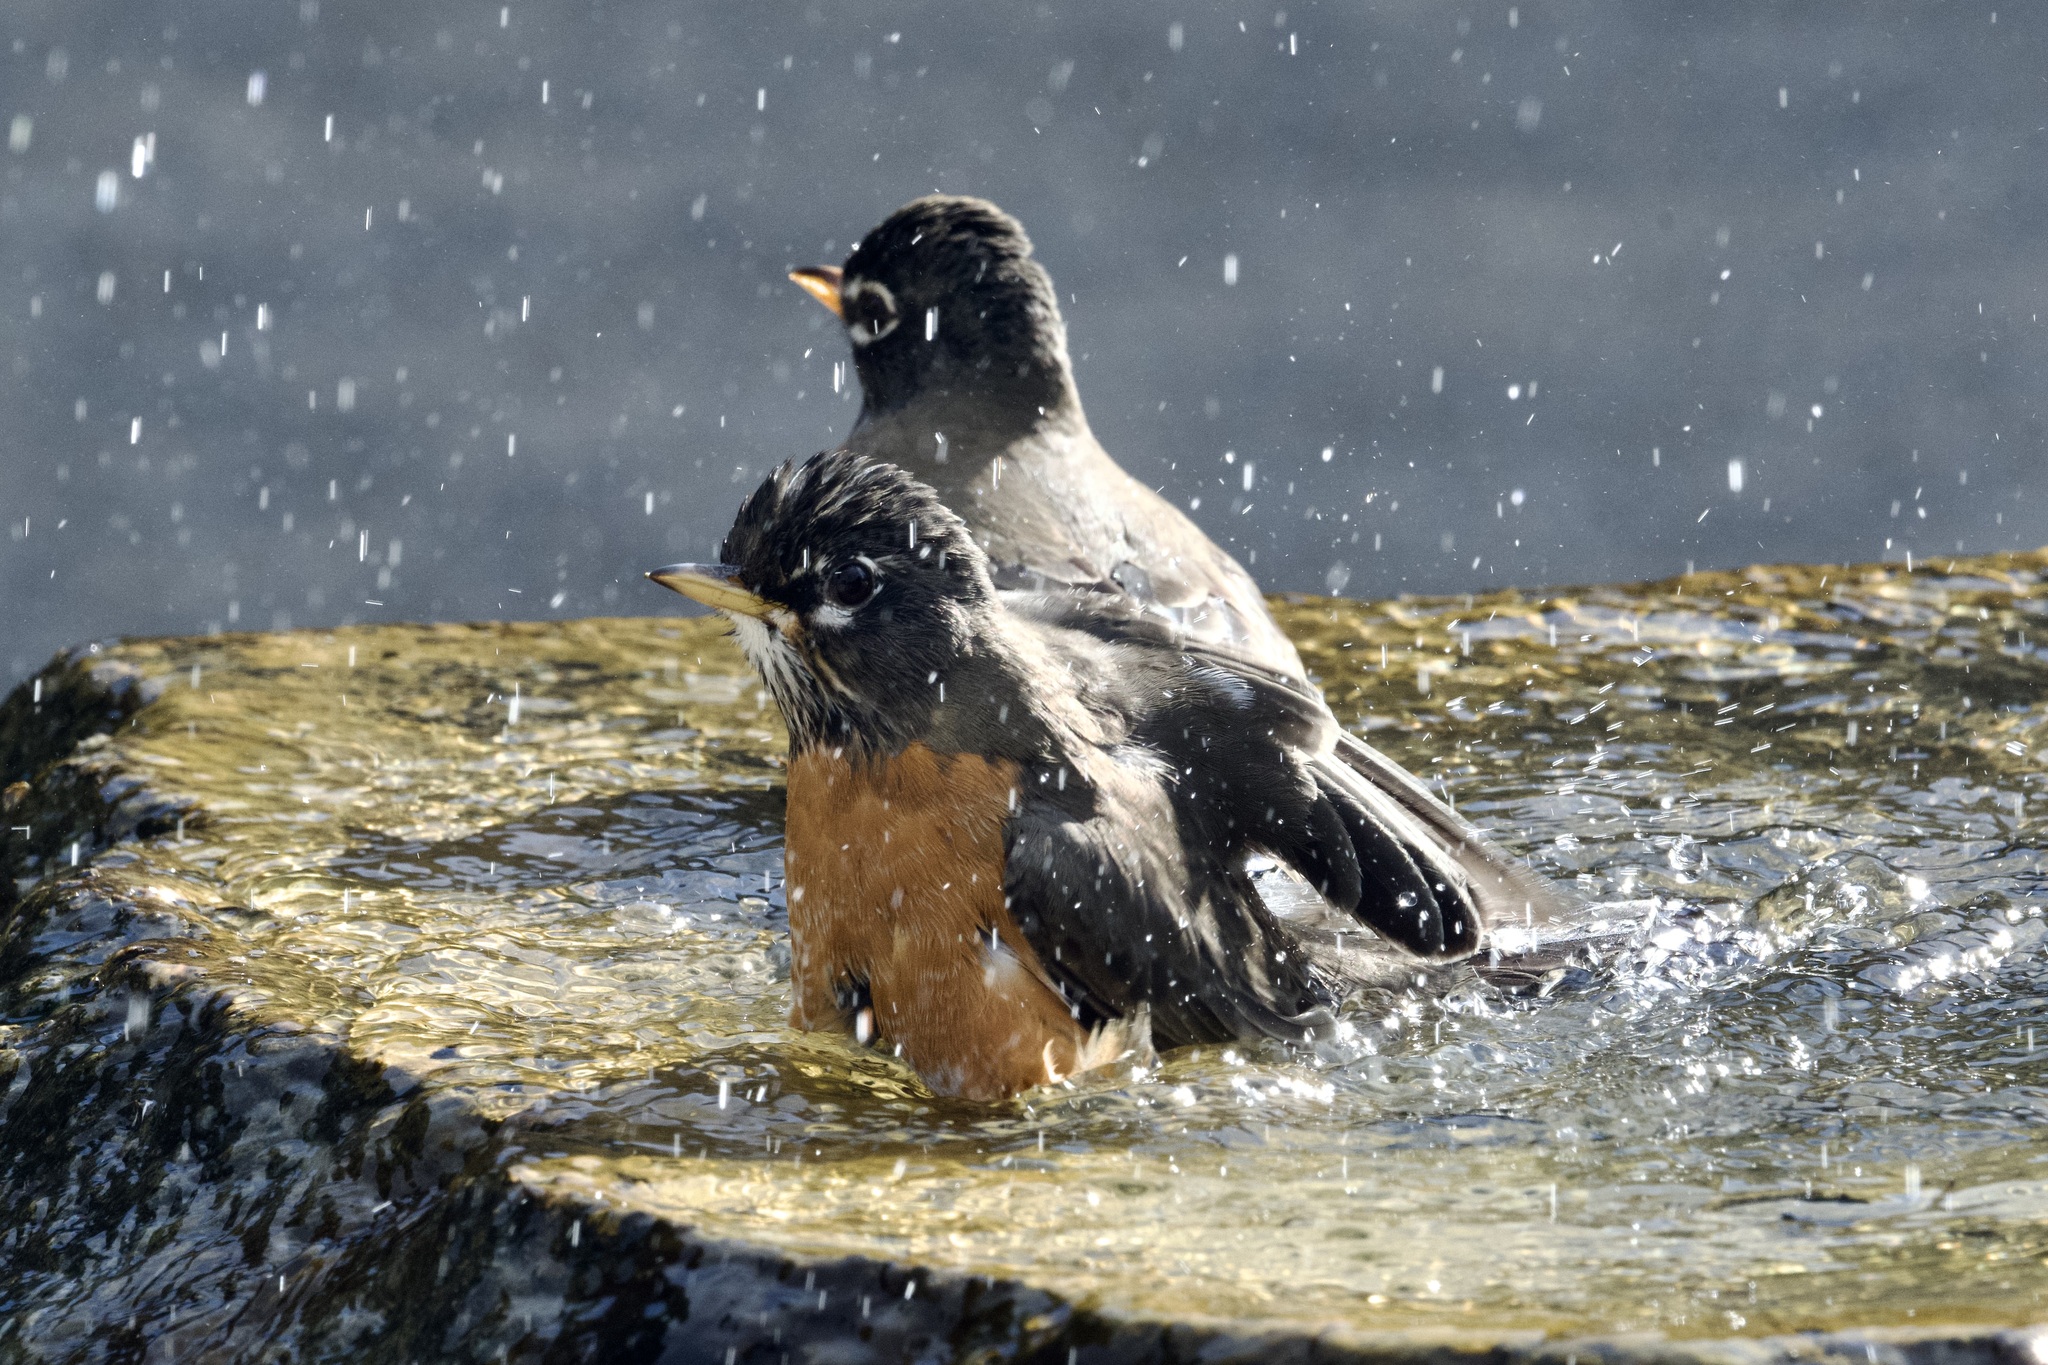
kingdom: Animalia
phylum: Chordata
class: Aves
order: Passeriformes
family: Turdidae
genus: Turdus
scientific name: Turdus migratorius
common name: American robin
